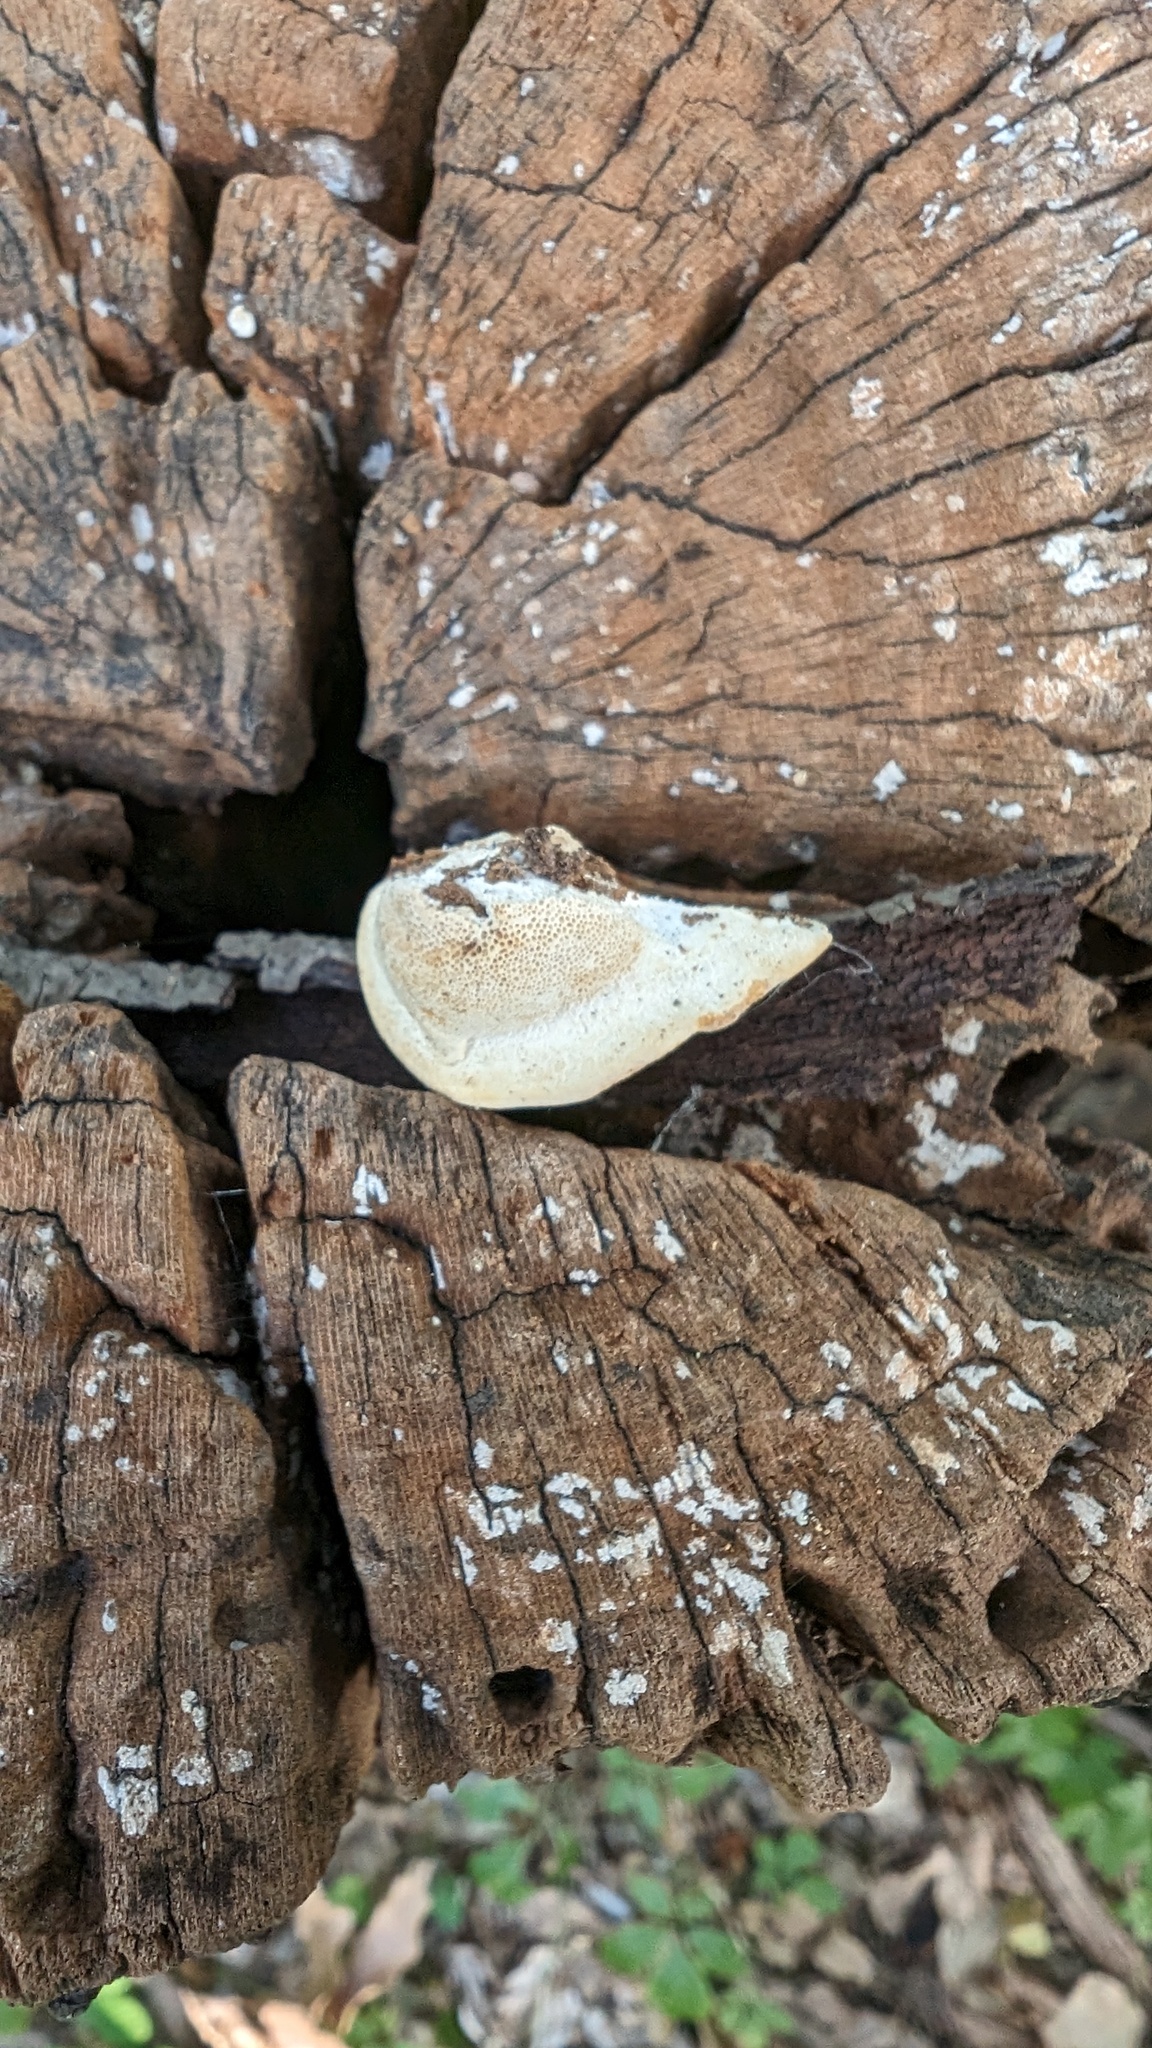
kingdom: Fungi
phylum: Basidiomycota
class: Agaricomycetes
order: Polyporales
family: Polyporaceae
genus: Truncospora
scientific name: Truncospora ochroleuca
